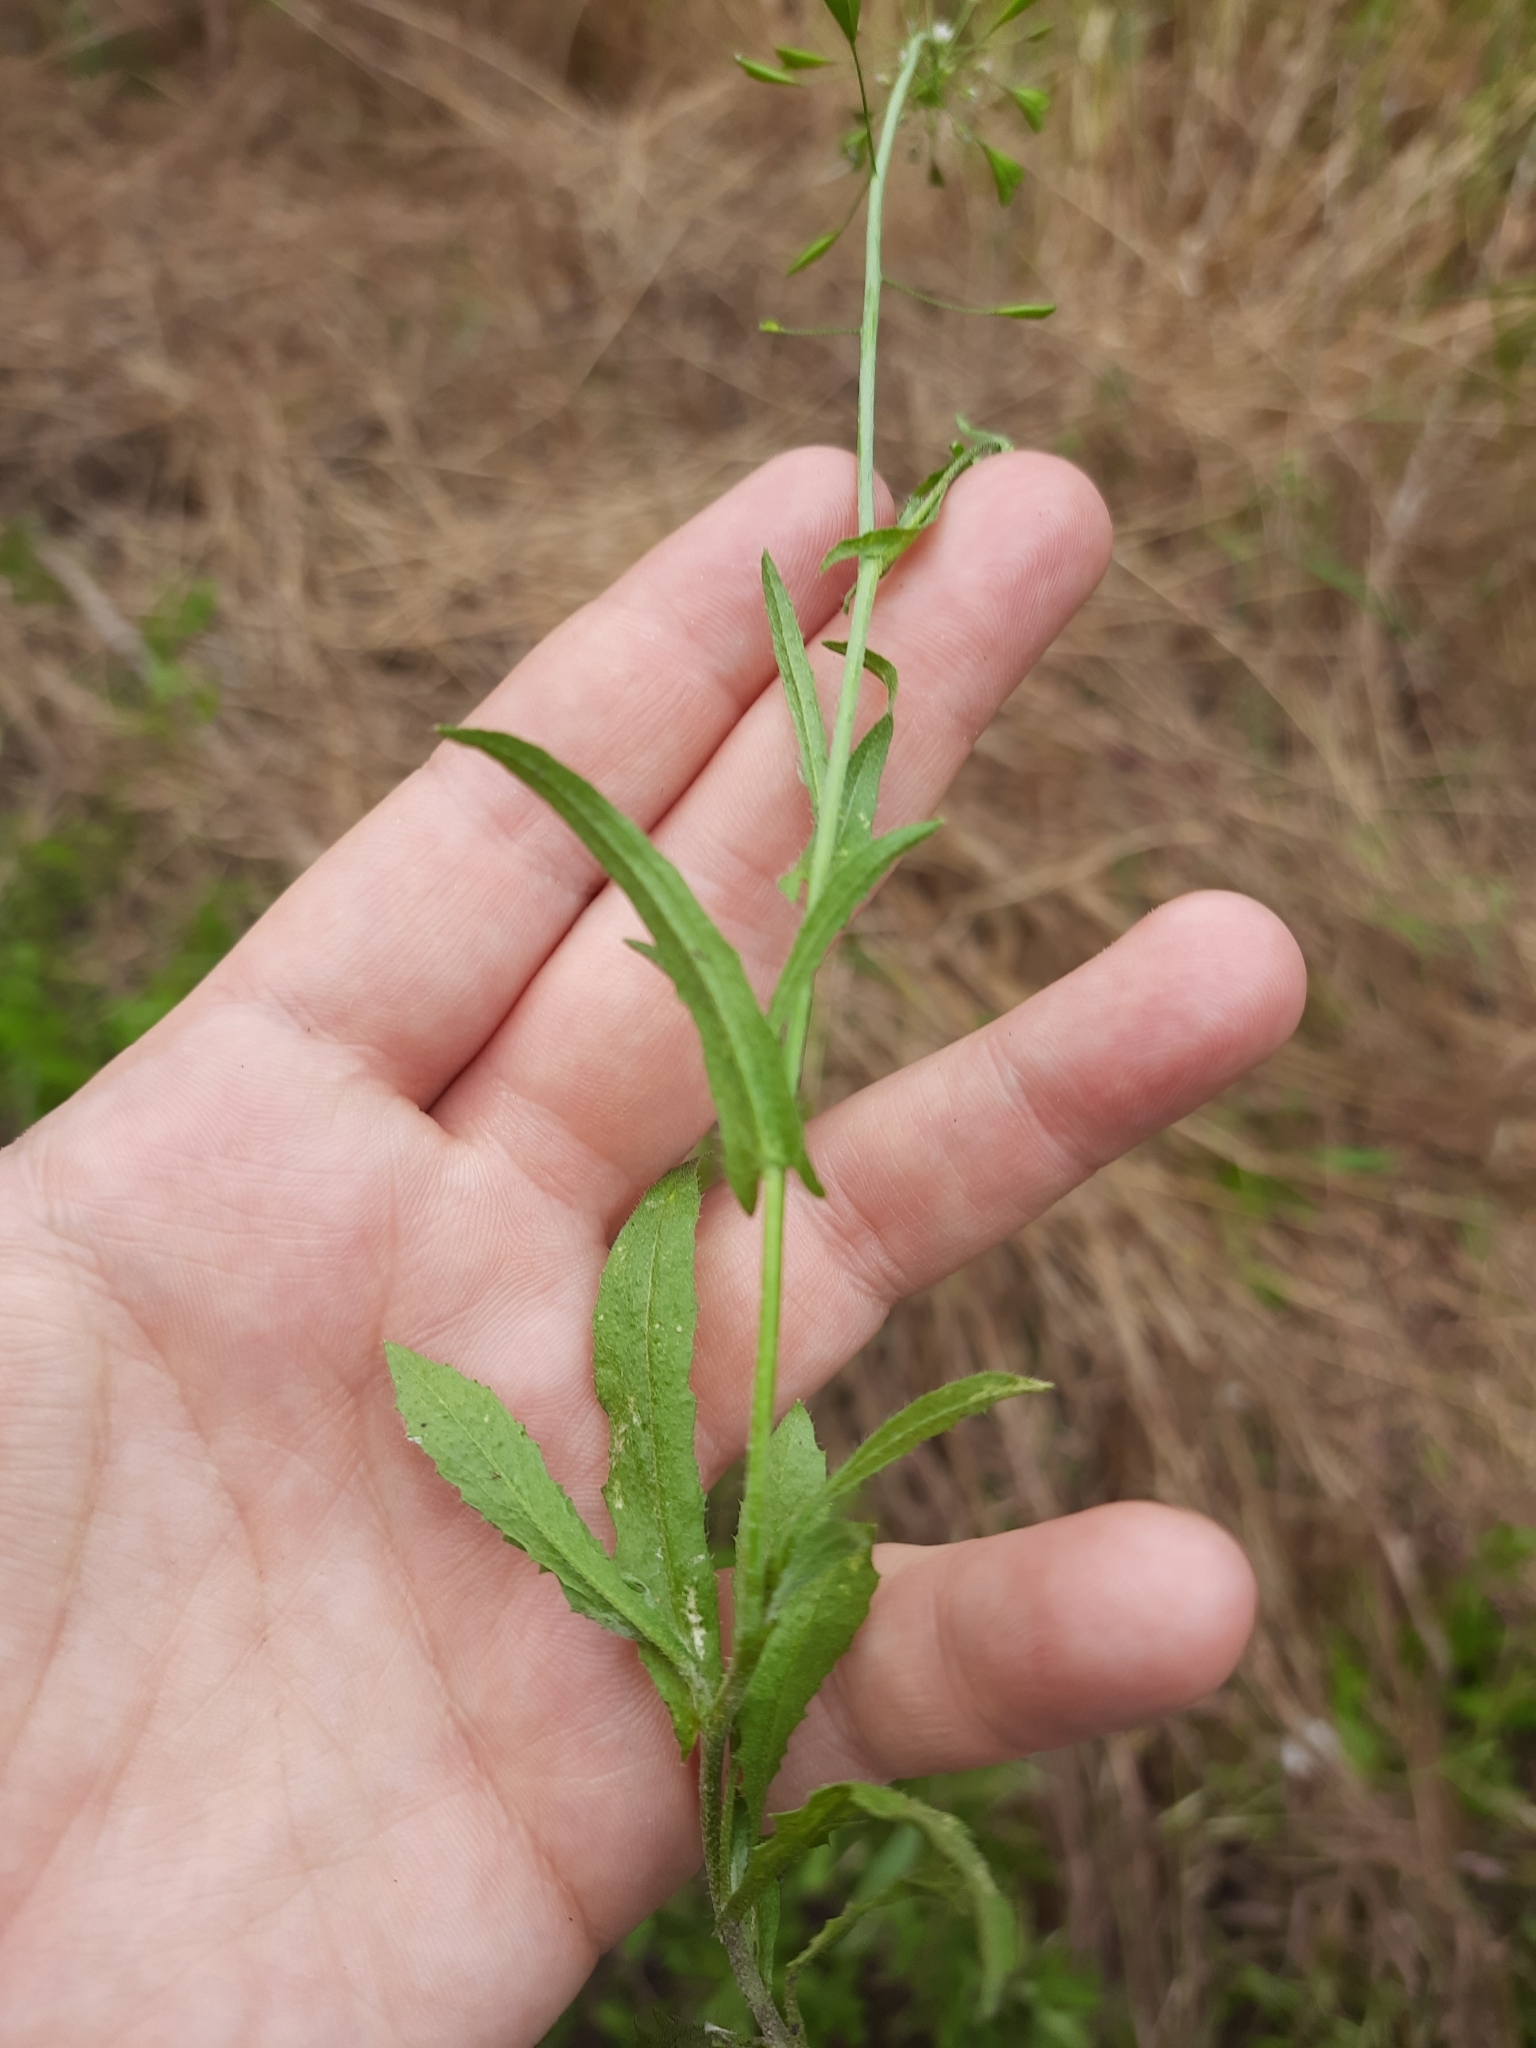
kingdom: Plantae
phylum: Tracheophyta
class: Magnoliopsida
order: Brassicales
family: Brassicaceae
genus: Capsella
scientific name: Capsella bursa-pastoris
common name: Shepherd's purse
